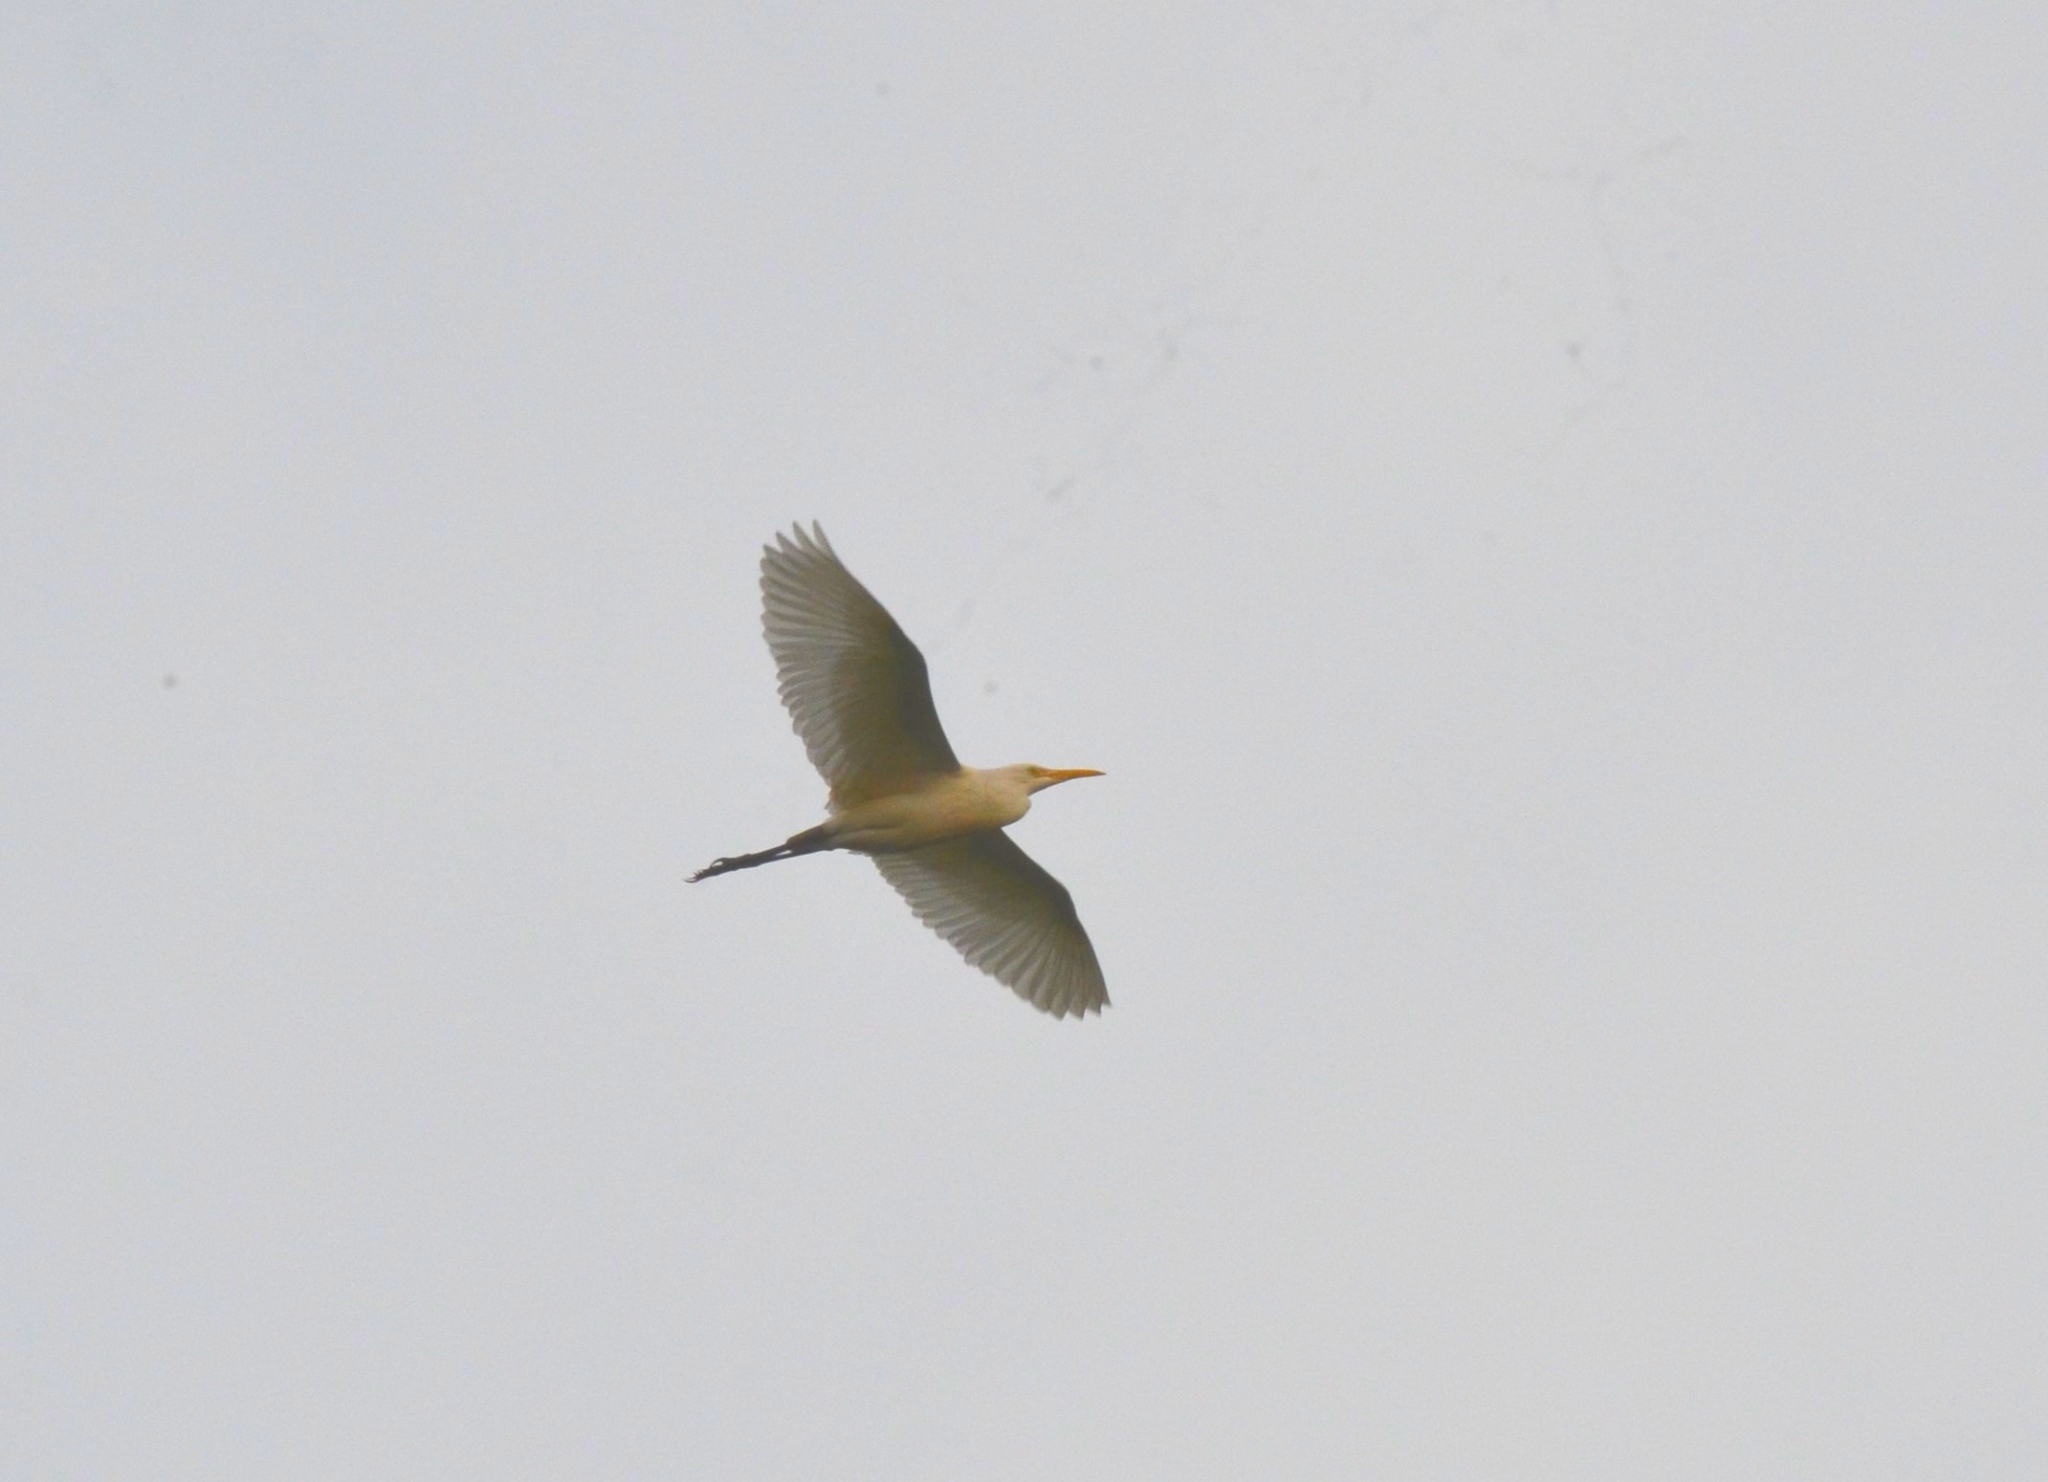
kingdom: Animalia
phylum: Chordata
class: Aves
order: Pelecaniformes
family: Ardeidae
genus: Bubulcus
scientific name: Bubulcus coromandus
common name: Eastern cattle egret
